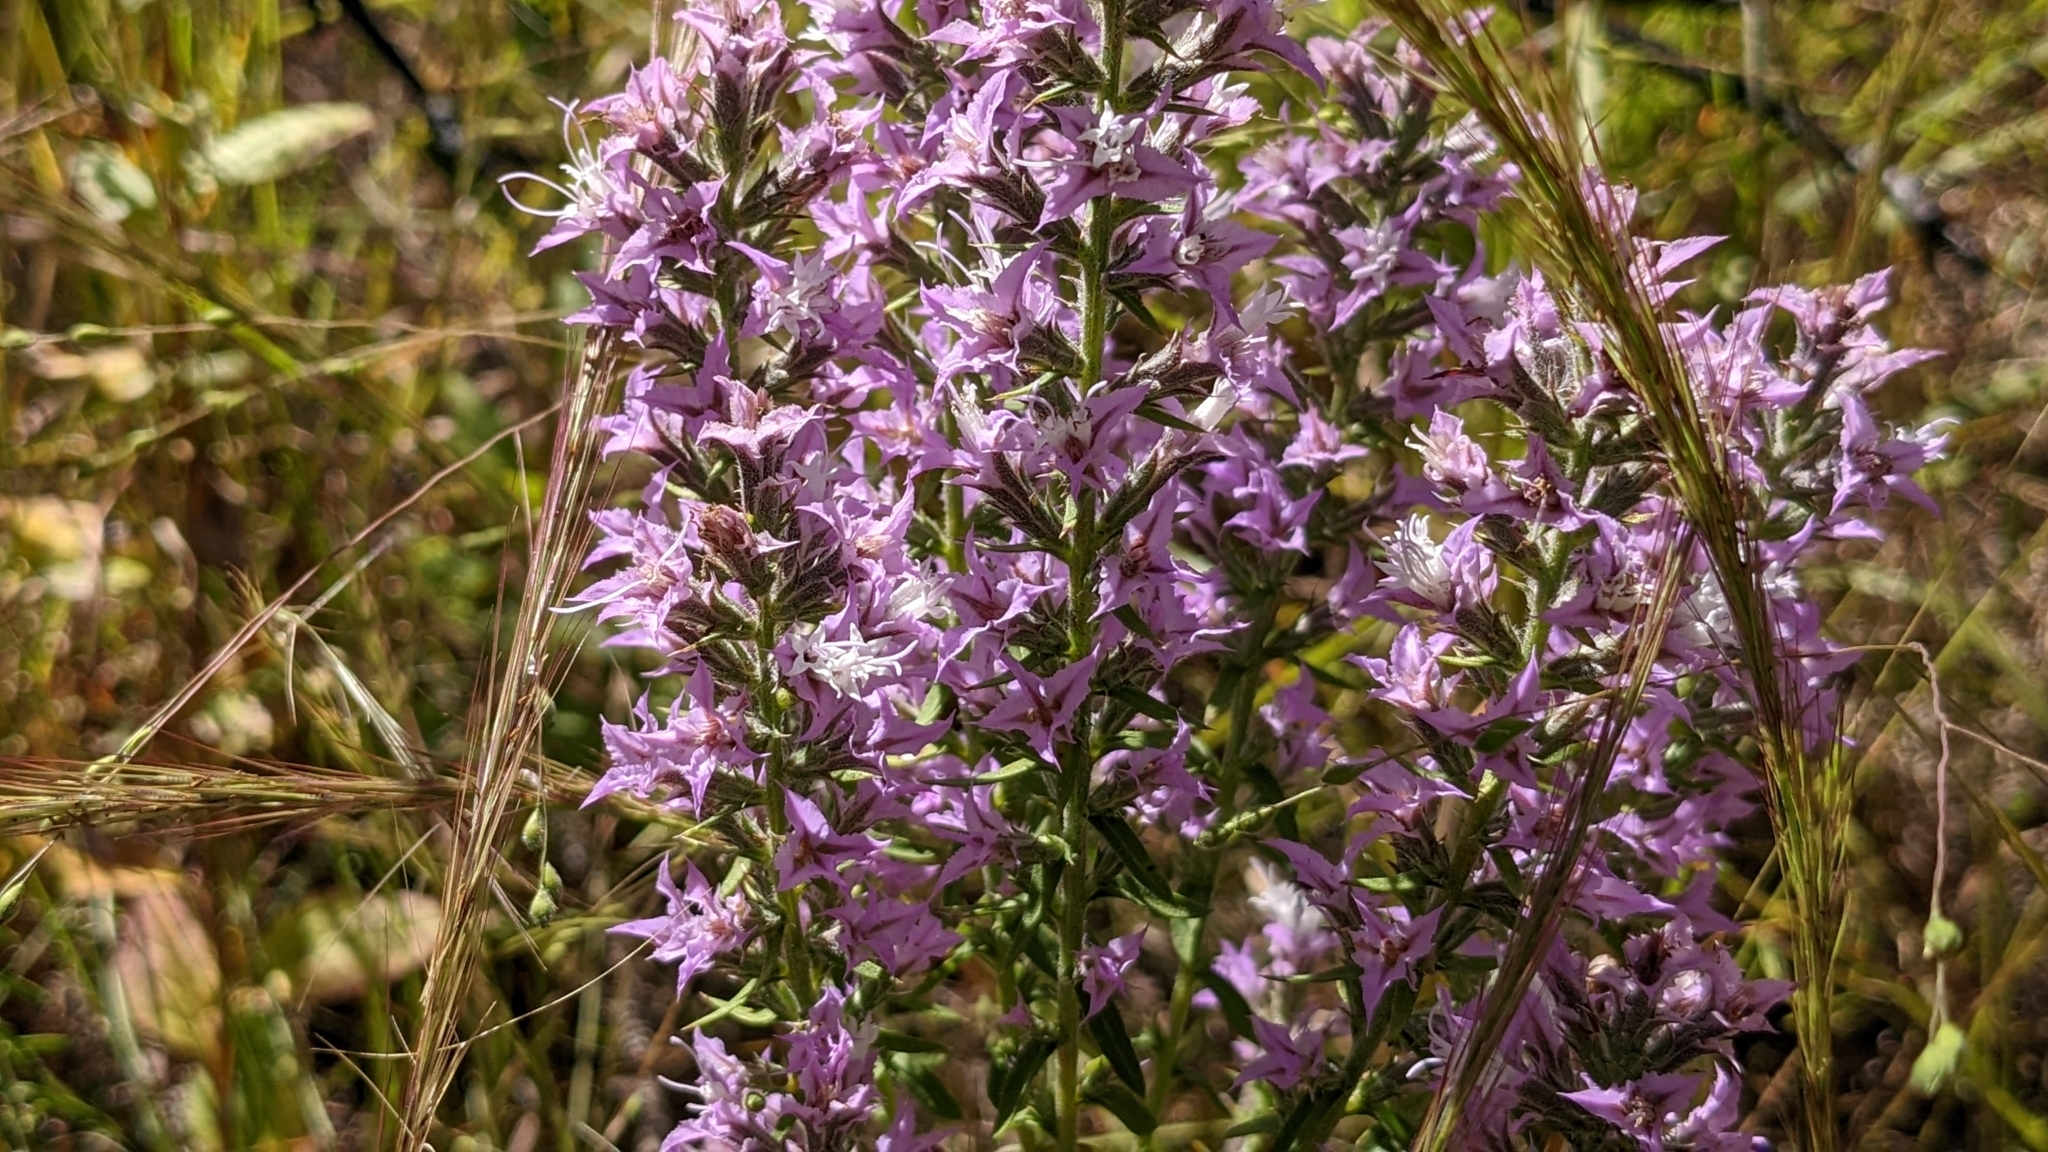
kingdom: Plantae
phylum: Tracheophyta
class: Magnoliopsida
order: Asterales
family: Asteraceae
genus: Liatris
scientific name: Liatris hesperelegans
